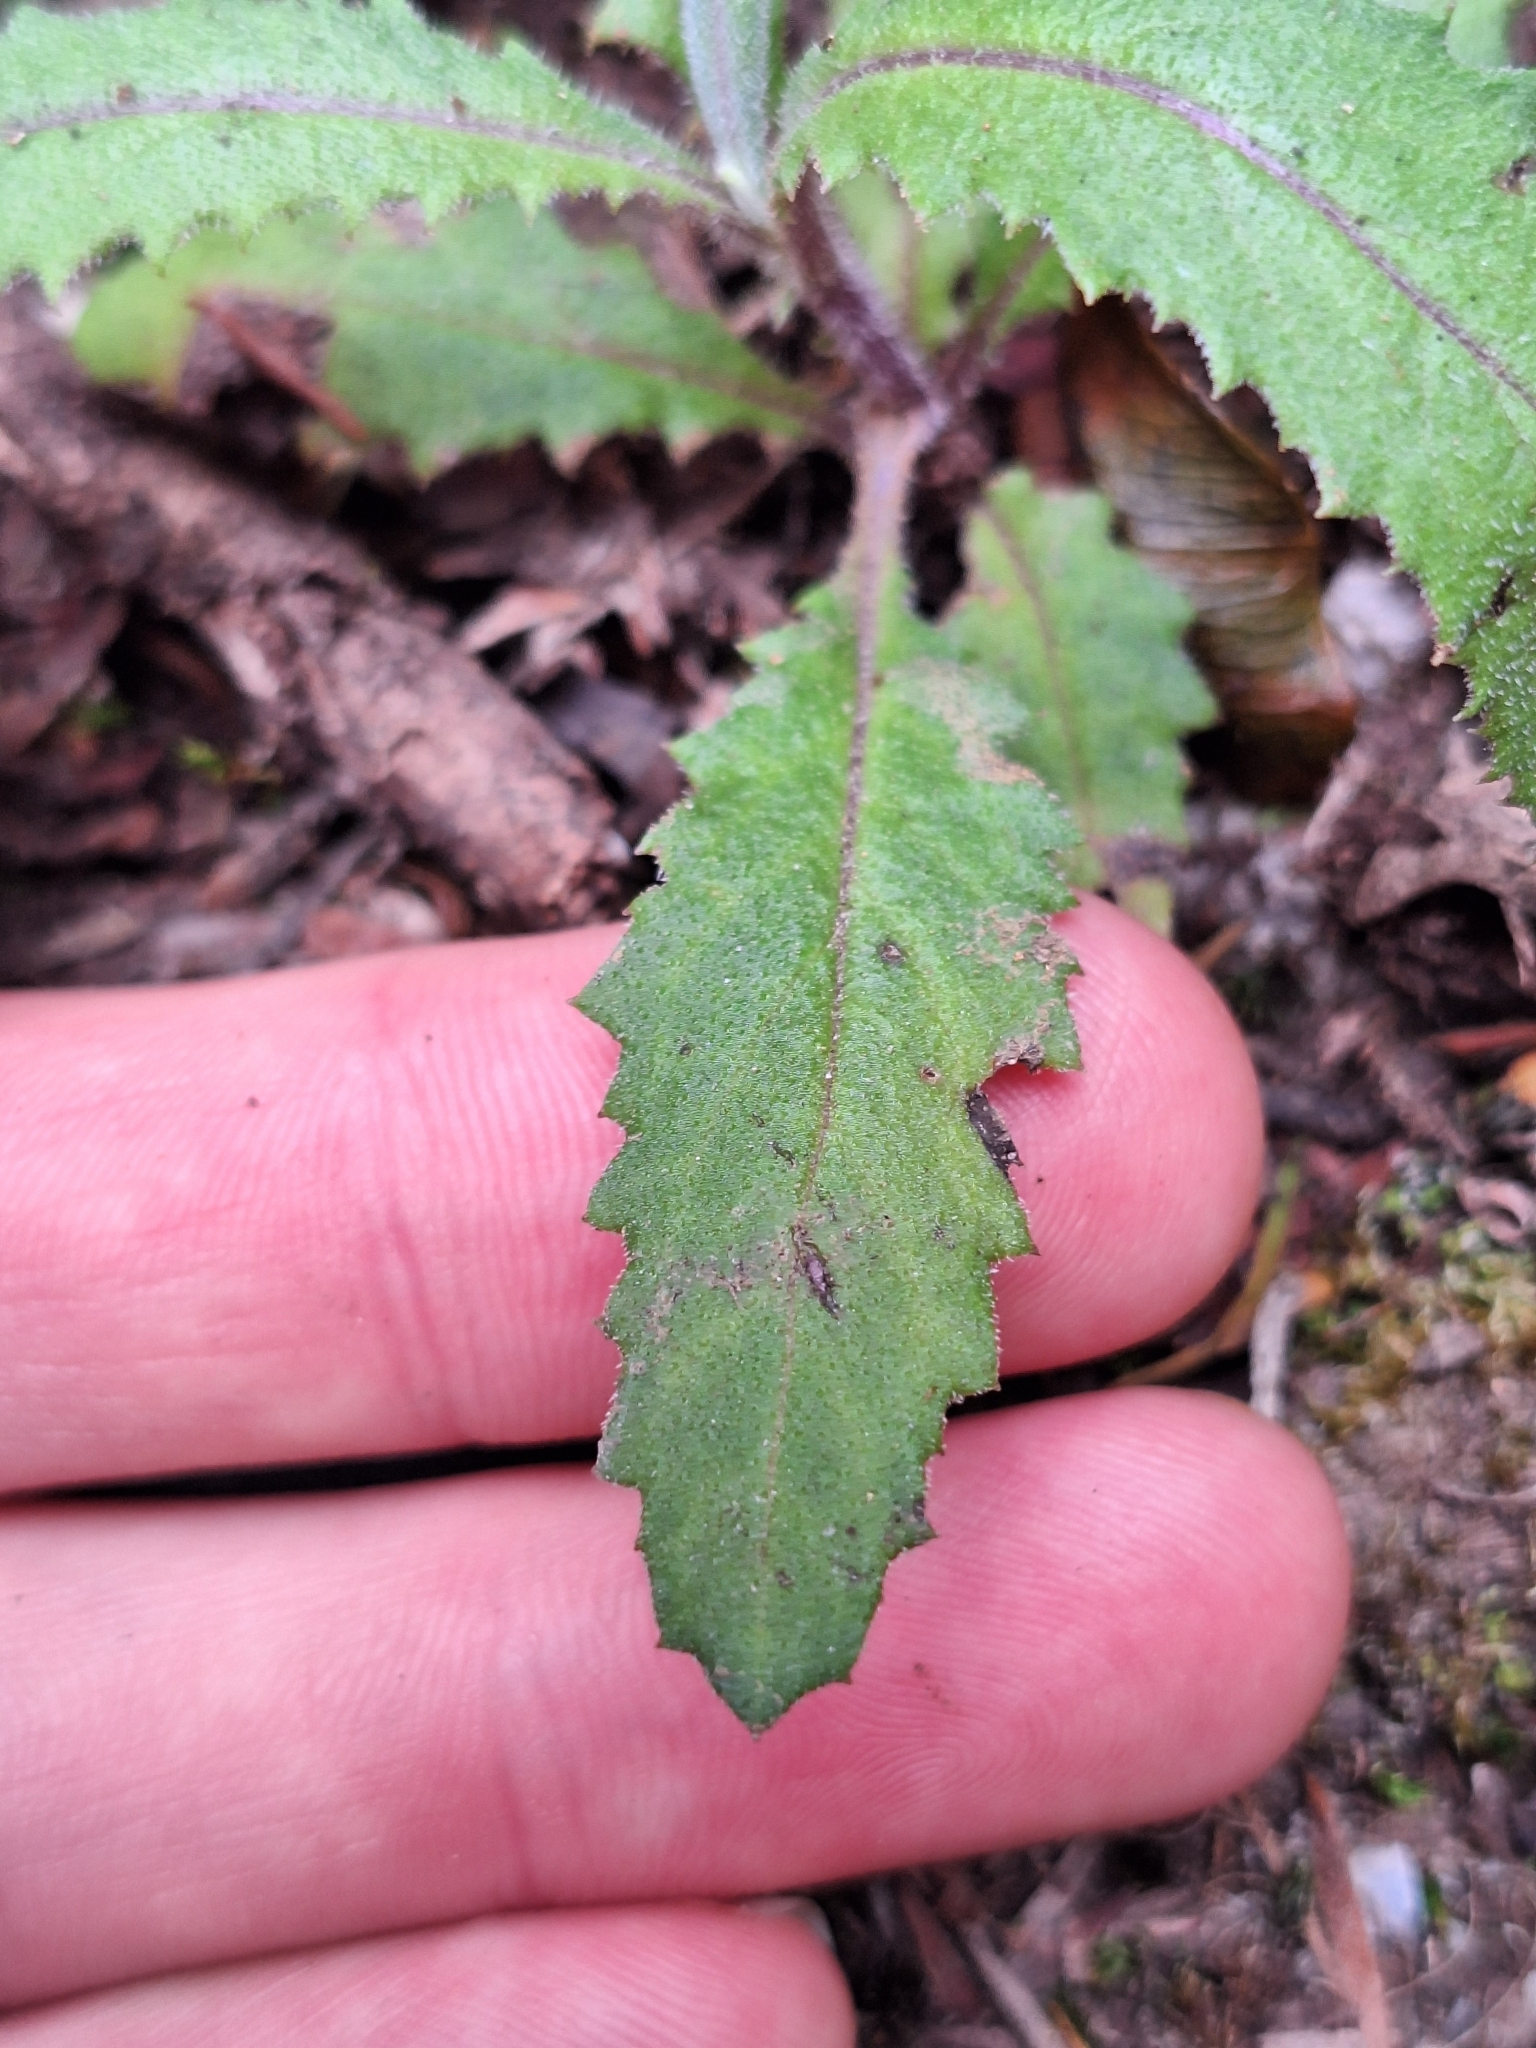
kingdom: Plantae
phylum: Tracheophyta
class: Magnoliopsida
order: Asterales
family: Asteraceae
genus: Senecio
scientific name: Senecio minimus
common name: Toothed fireweed
